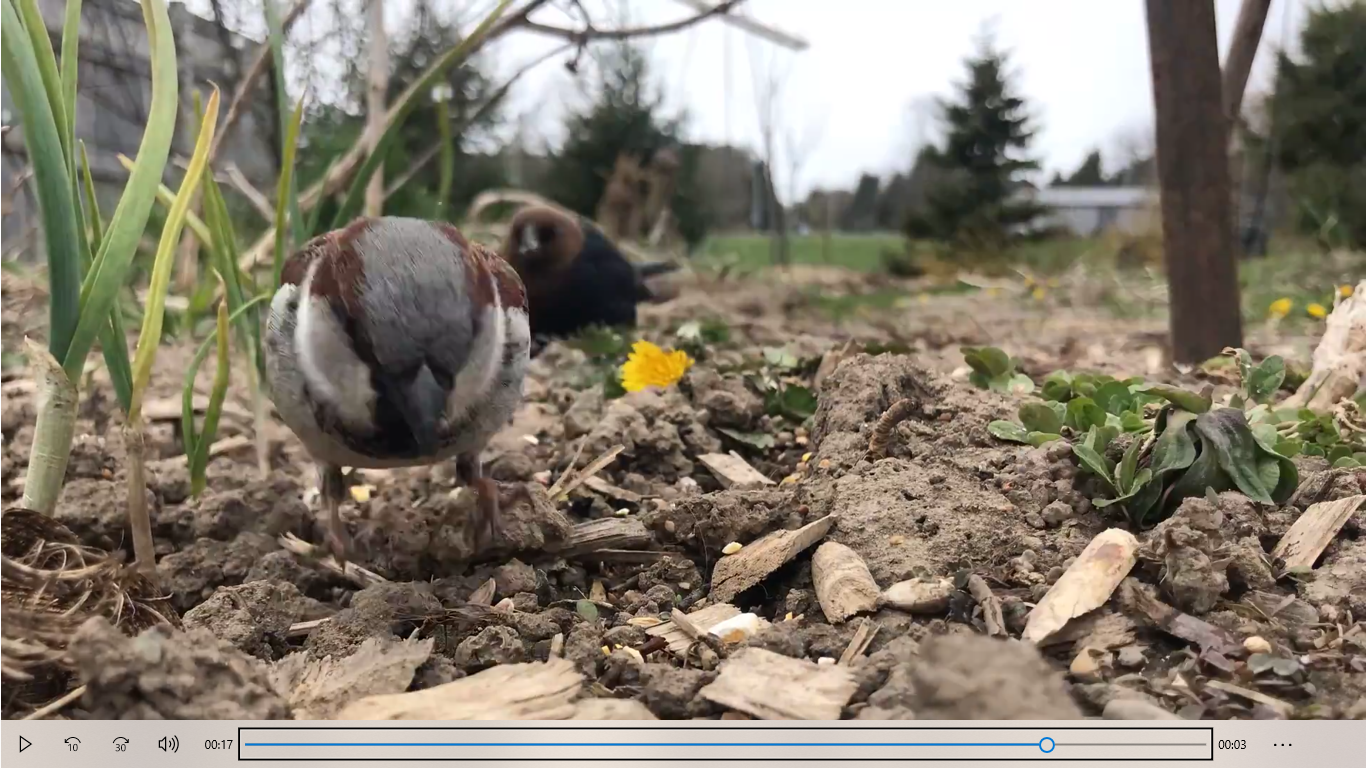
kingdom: Animalia
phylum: Chordata
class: Aves
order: Passeriformes
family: Passeridae
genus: Passer
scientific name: Passer domesticus
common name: House sparrow
